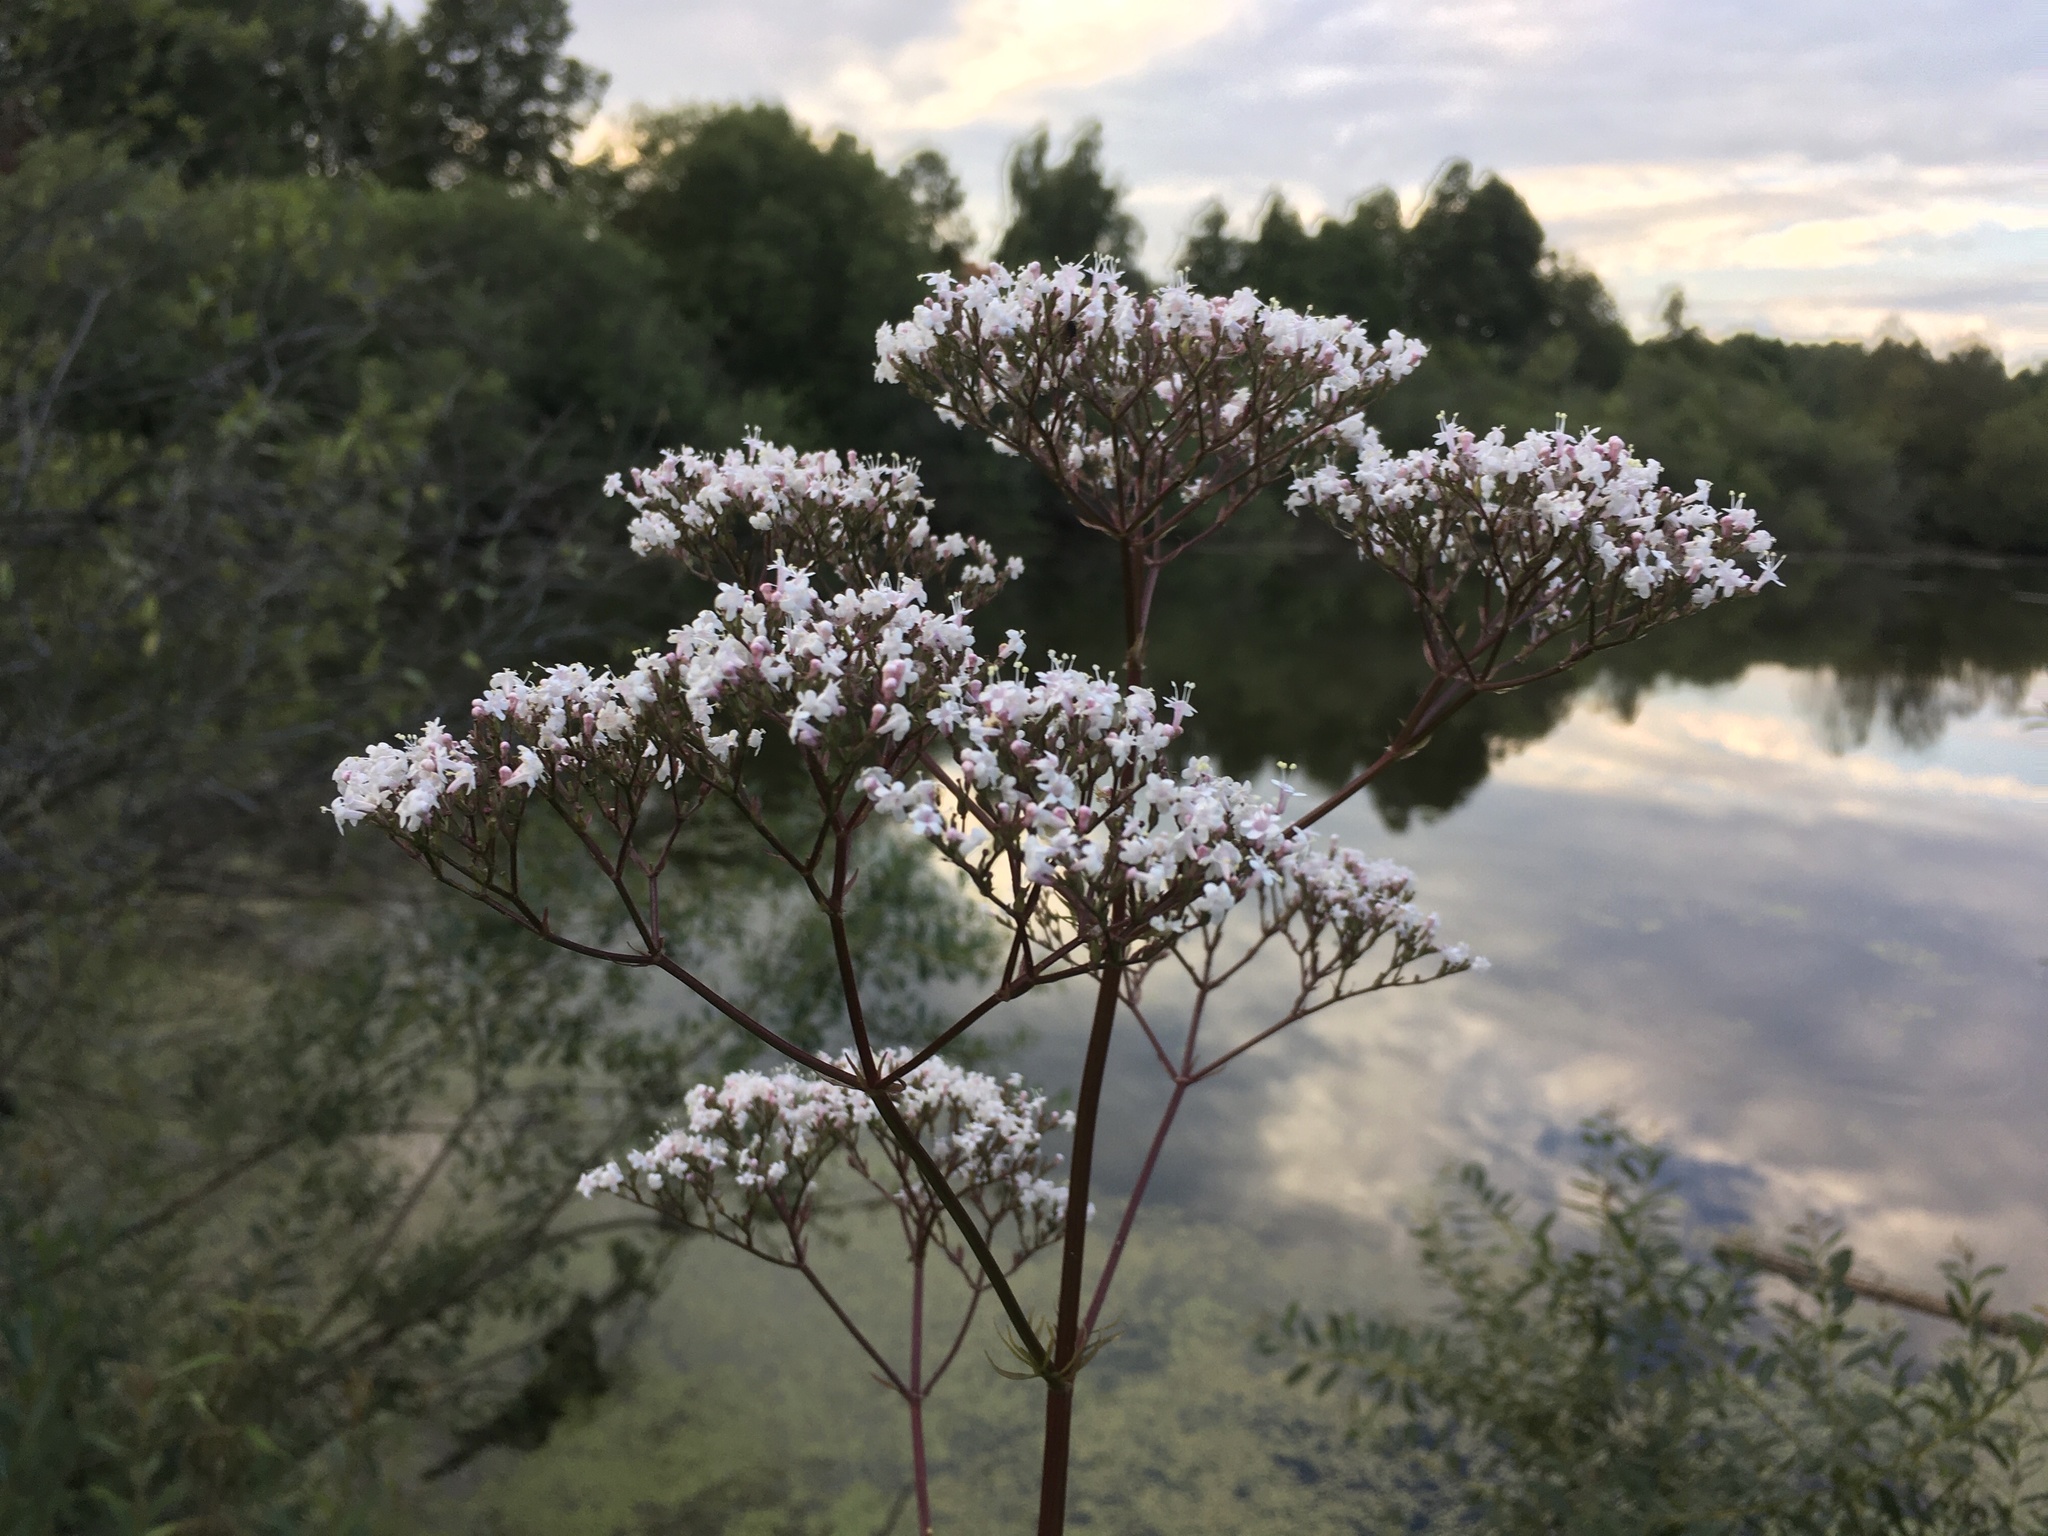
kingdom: Plantae
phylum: Tracheophyta
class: Magnoliopsida
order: Dipsacales
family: Caprifoliaceae
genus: Valeriana
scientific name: Valeriana officinalis
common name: Common valerian
